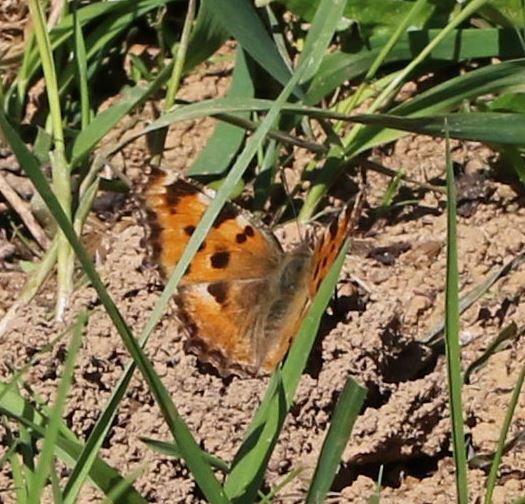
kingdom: Animalia
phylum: Arthropoda
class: Insecta
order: Lepidoptera
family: Nymphalidae
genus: Nymphalis
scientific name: Nymphalis polychloros
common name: Large tortoiseshell
